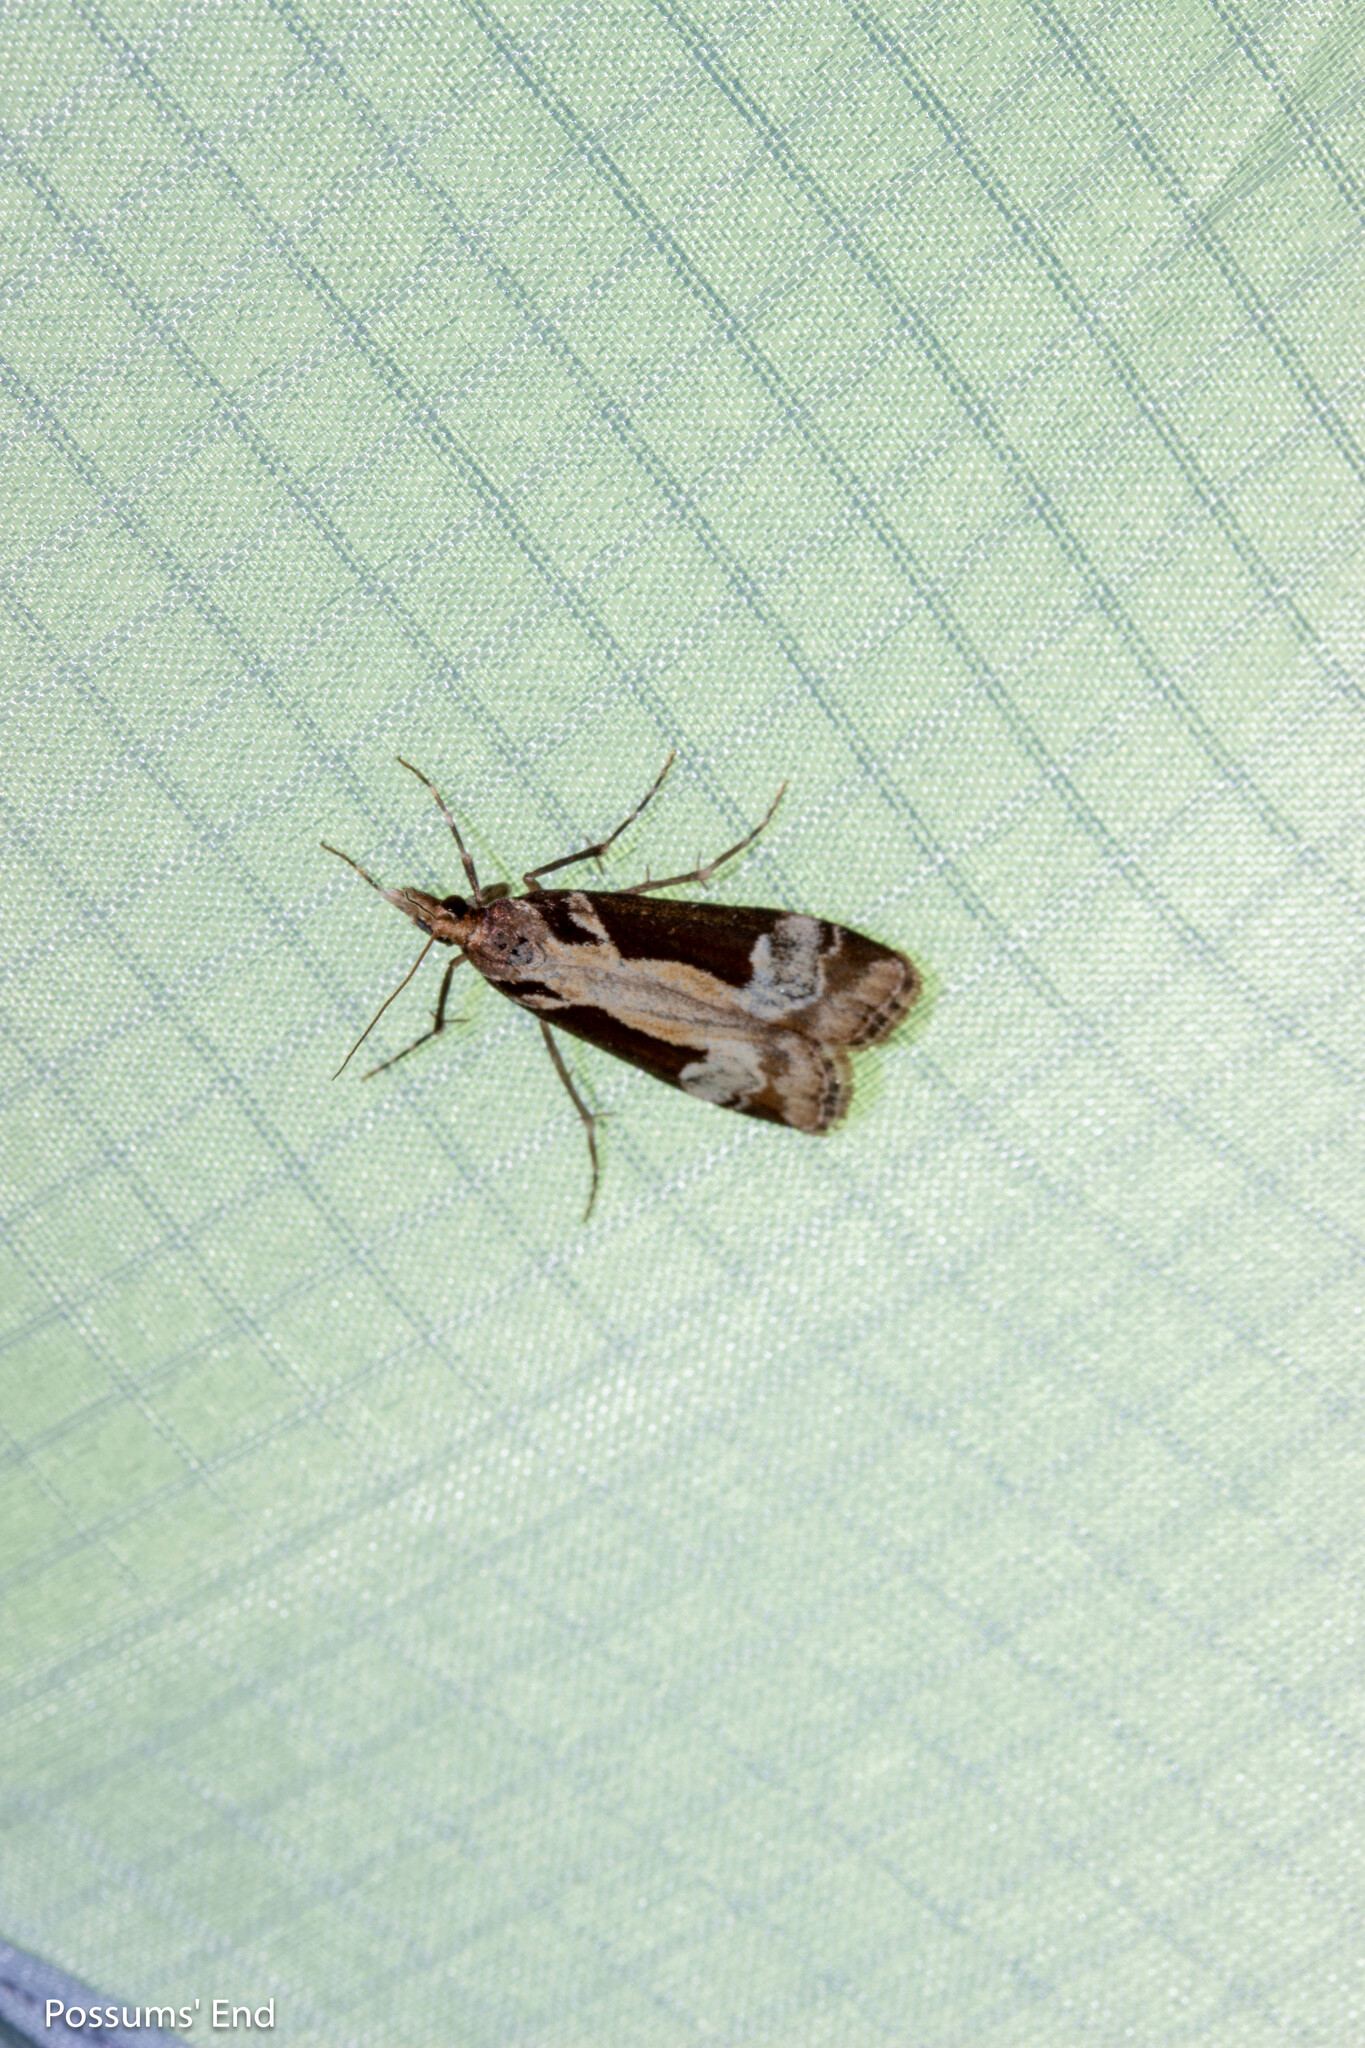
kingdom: Animalia
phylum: Arthropoda
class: Insecta
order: Lepidoptera
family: Crambidae
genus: Scoparia
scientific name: Scoparia trapezophora
